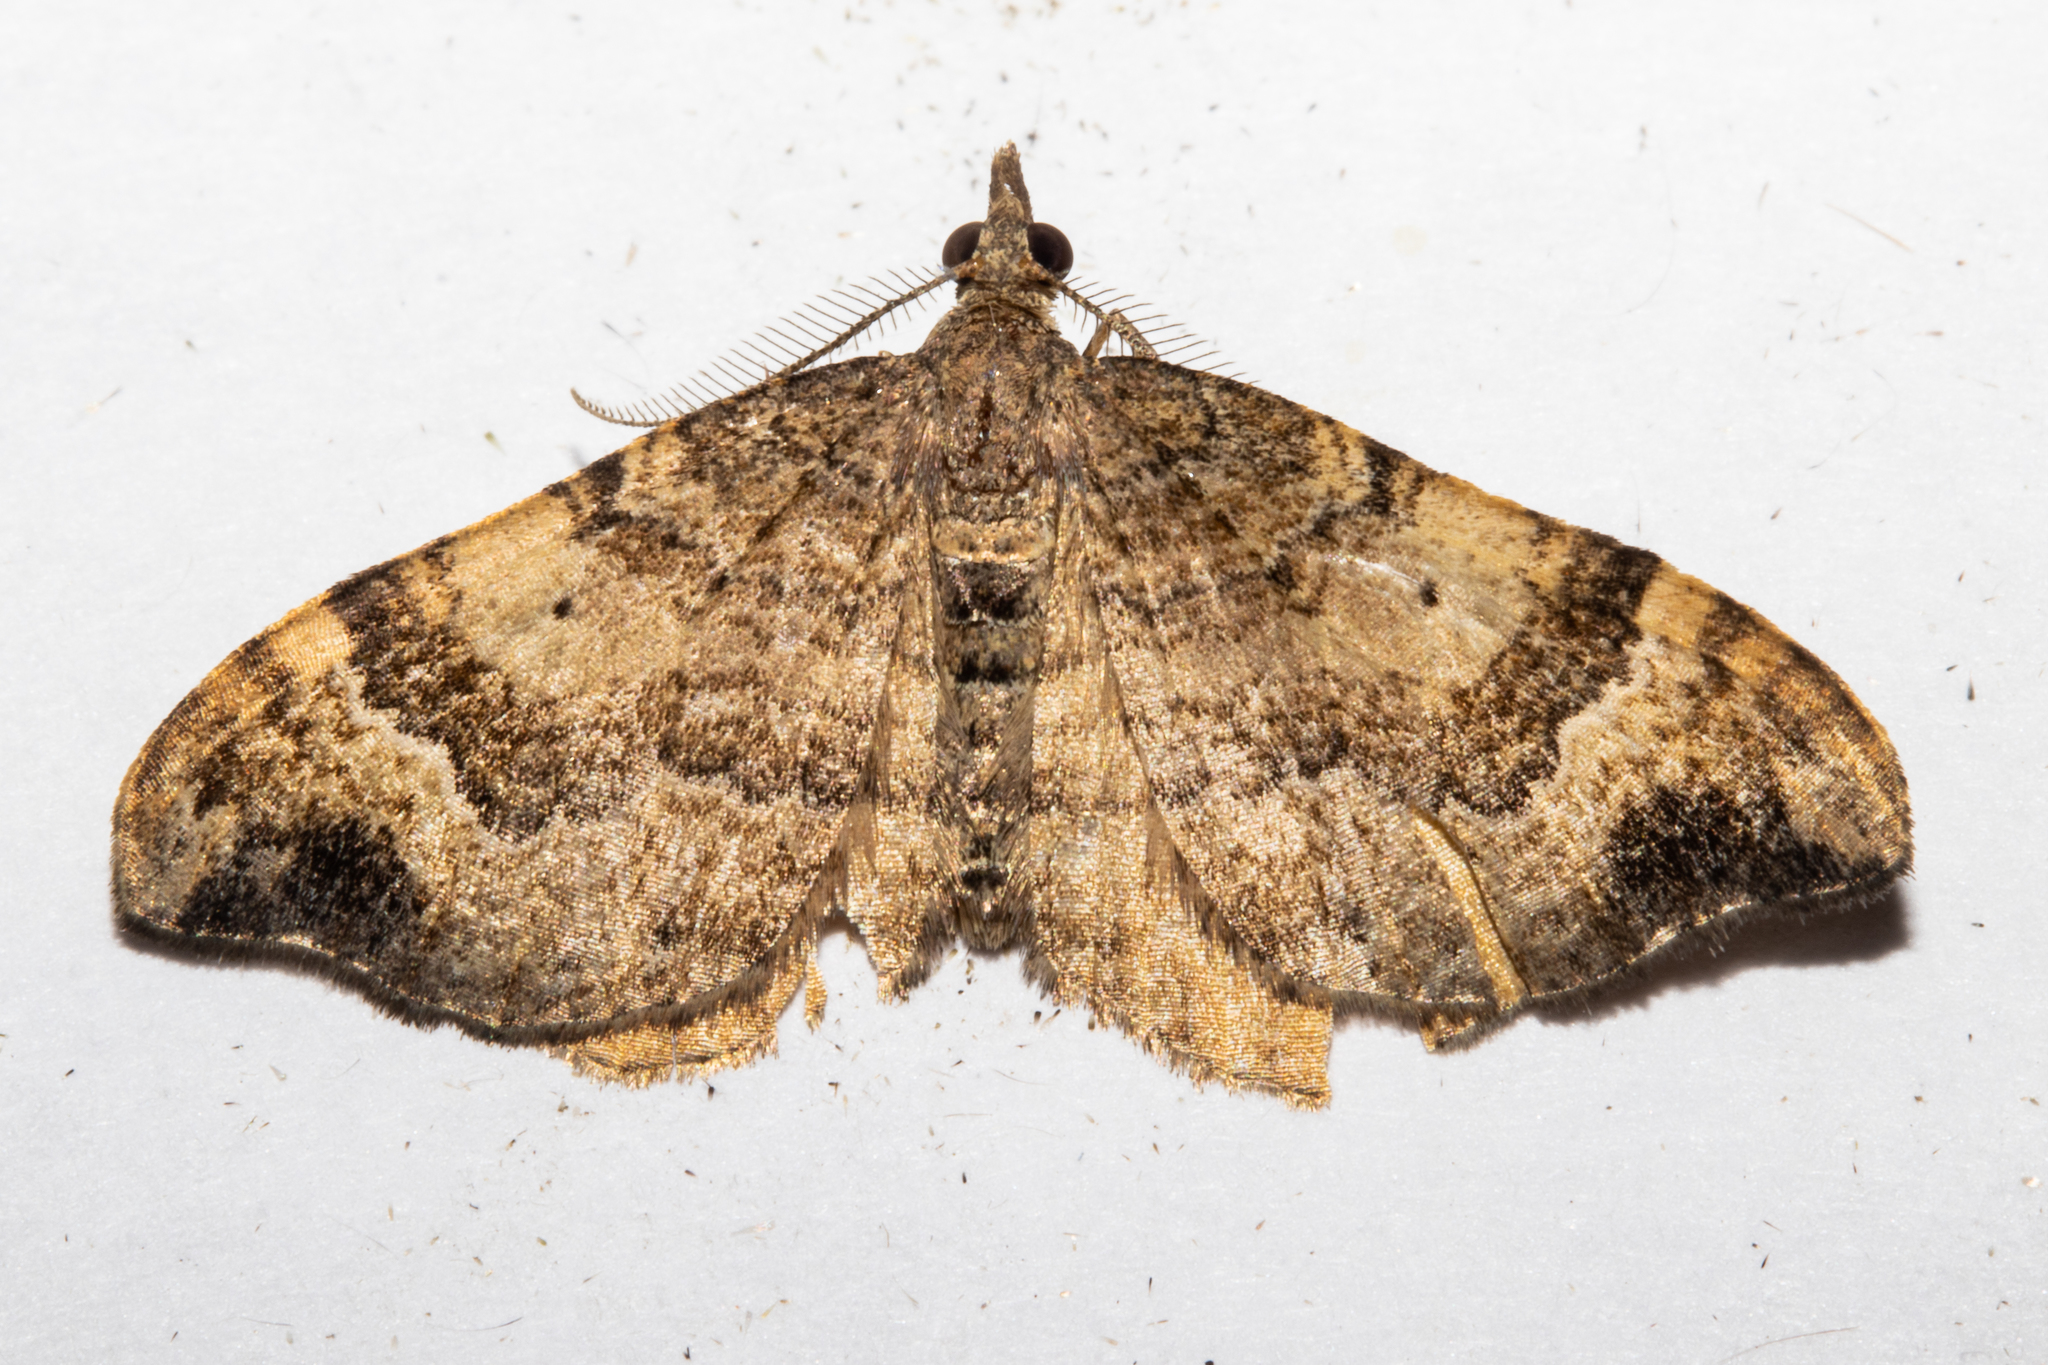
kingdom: Animalia
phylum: Arthropoda
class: Insecta
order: Lepidoptera
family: Geometridae
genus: Homodotis
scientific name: Homodotis megaspilata
